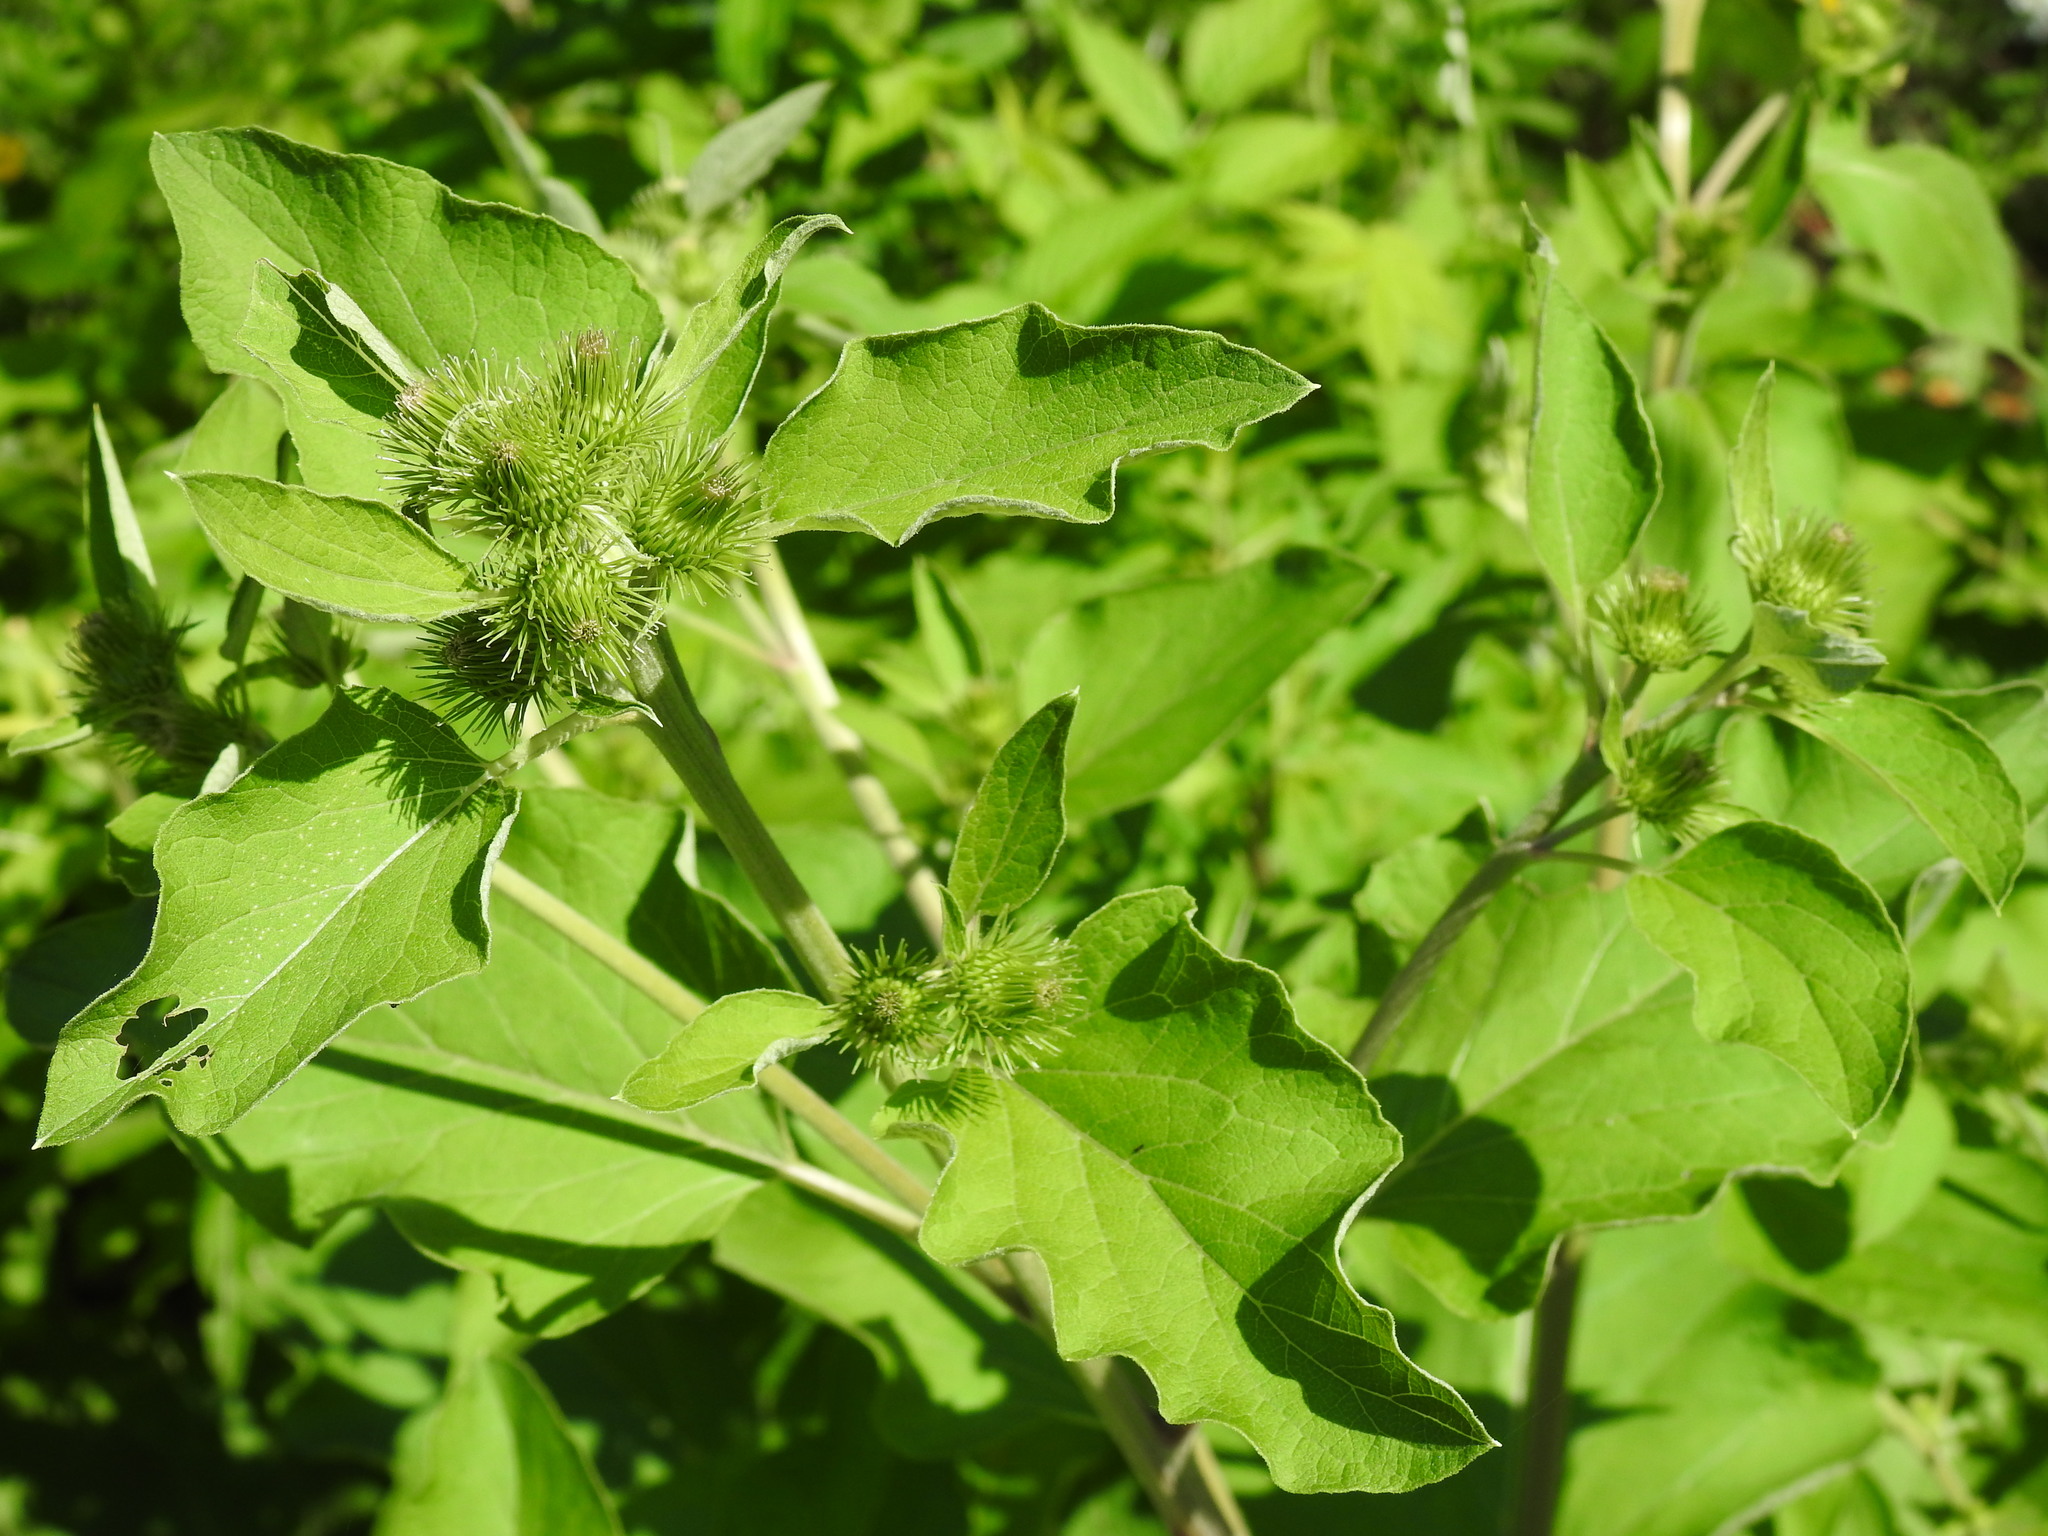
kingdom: Plantae
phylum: Tracheophyta
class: Magnoliopsida
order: Asterales
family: Asteraceae
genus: Arctium
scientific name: Arctium minus
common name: Lesser burdock
